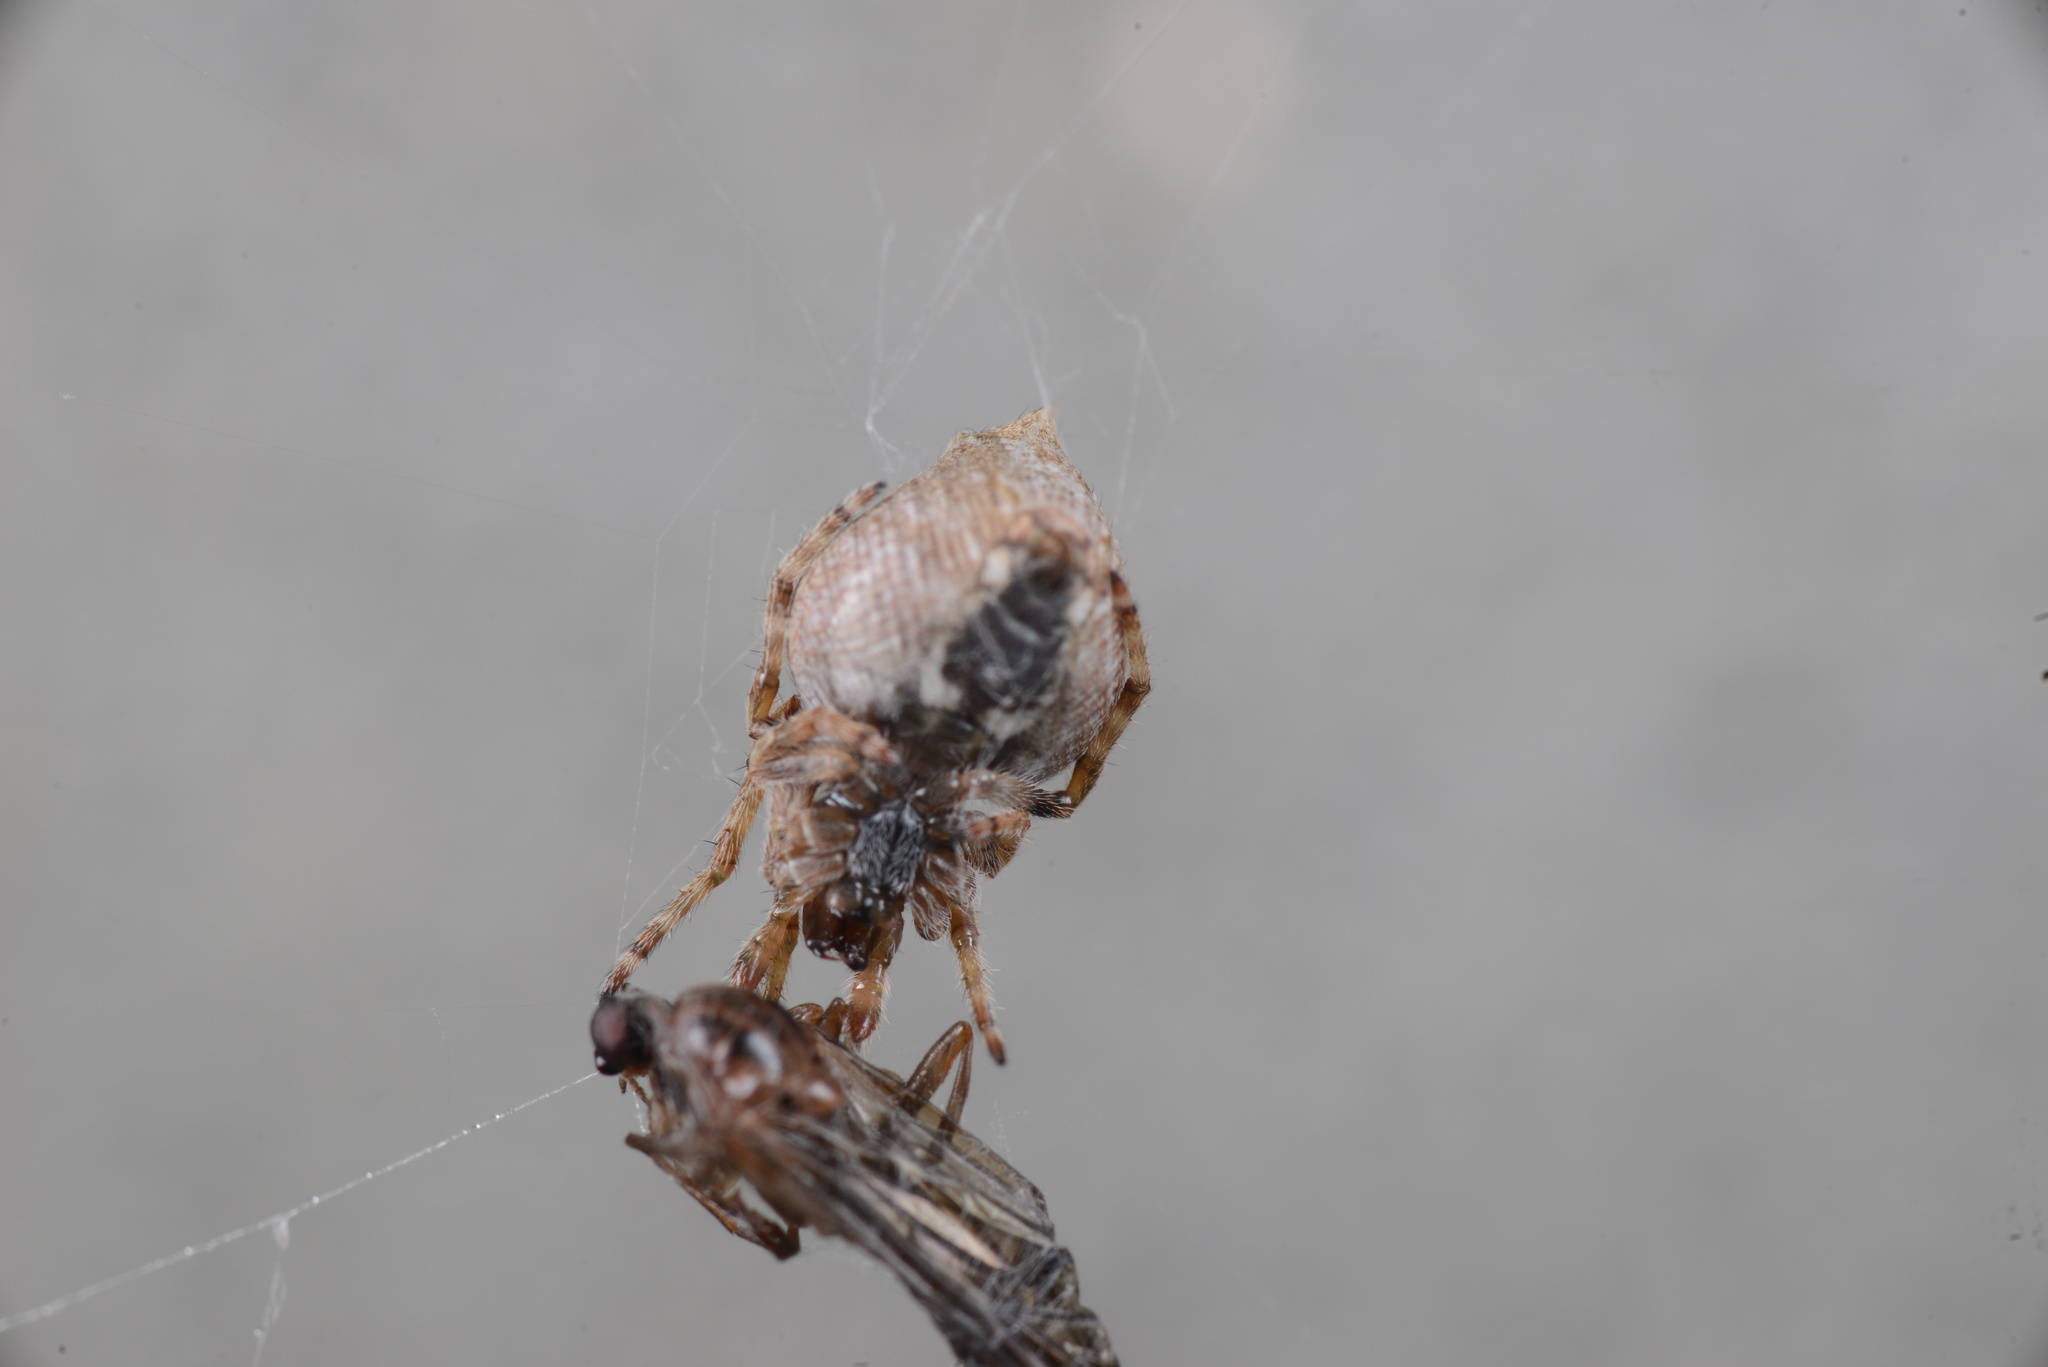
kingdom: Animalia
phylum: Arthropoda
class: Arachnida
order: Araneae
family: Araneidae
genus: Eriophora
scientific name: Eriophora pustulosa
